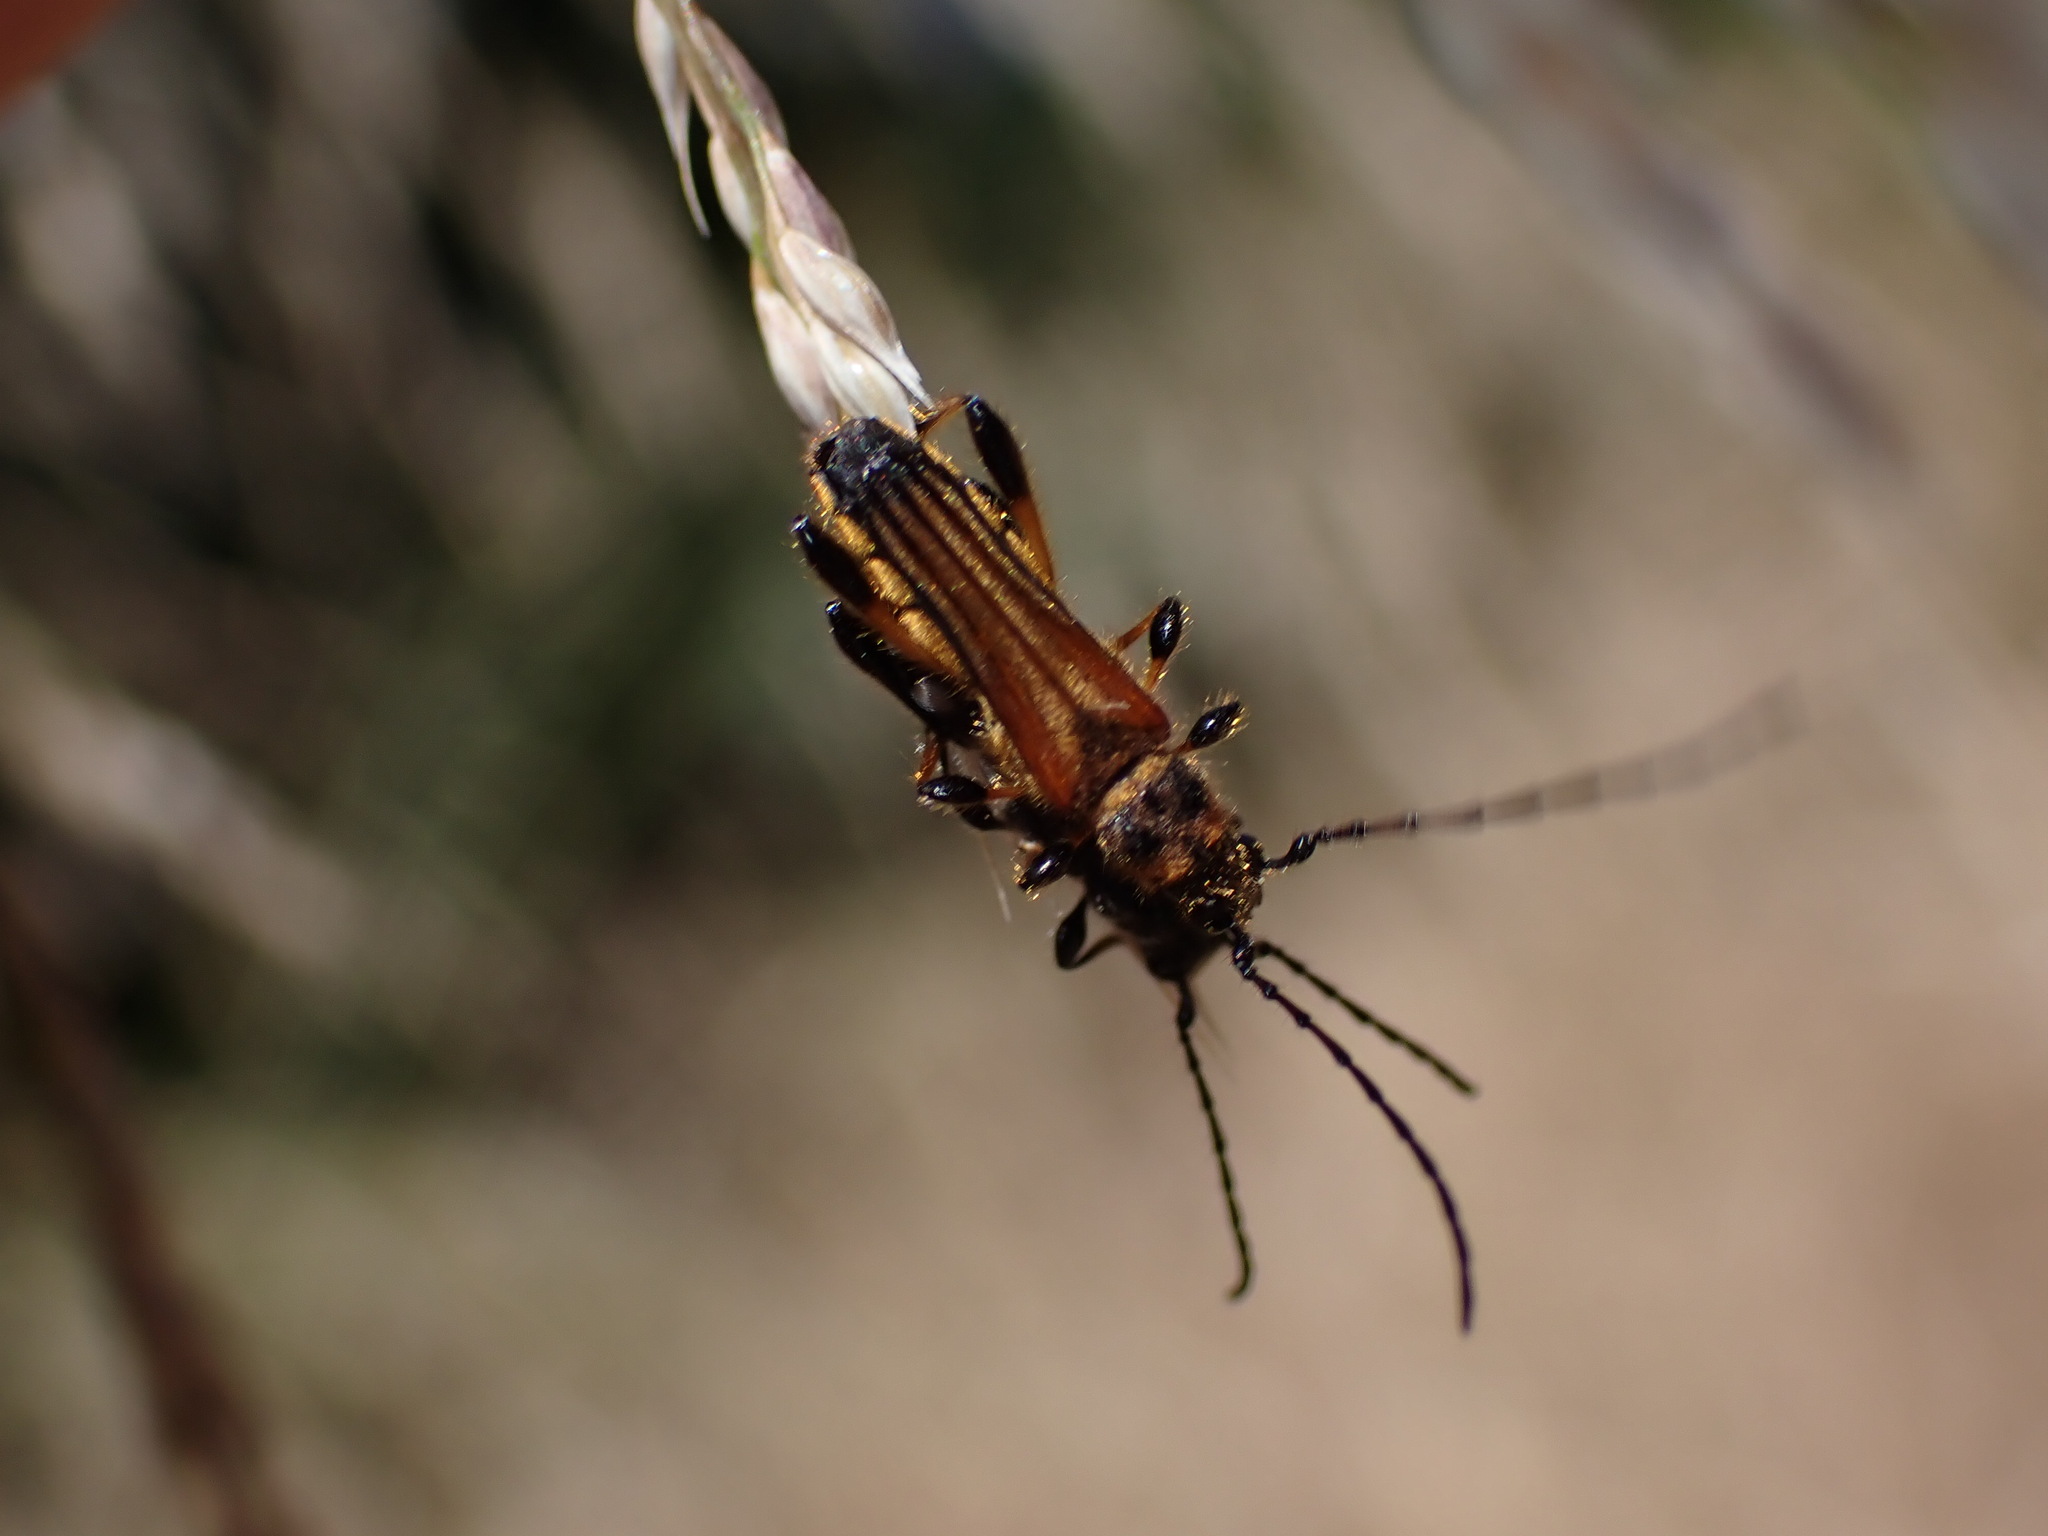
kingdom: Animalia
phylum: Arthropoda
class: Insecta
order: Coleoptera
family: Cerambycidae
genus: Stenopterus
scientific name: Stenopterus ater
